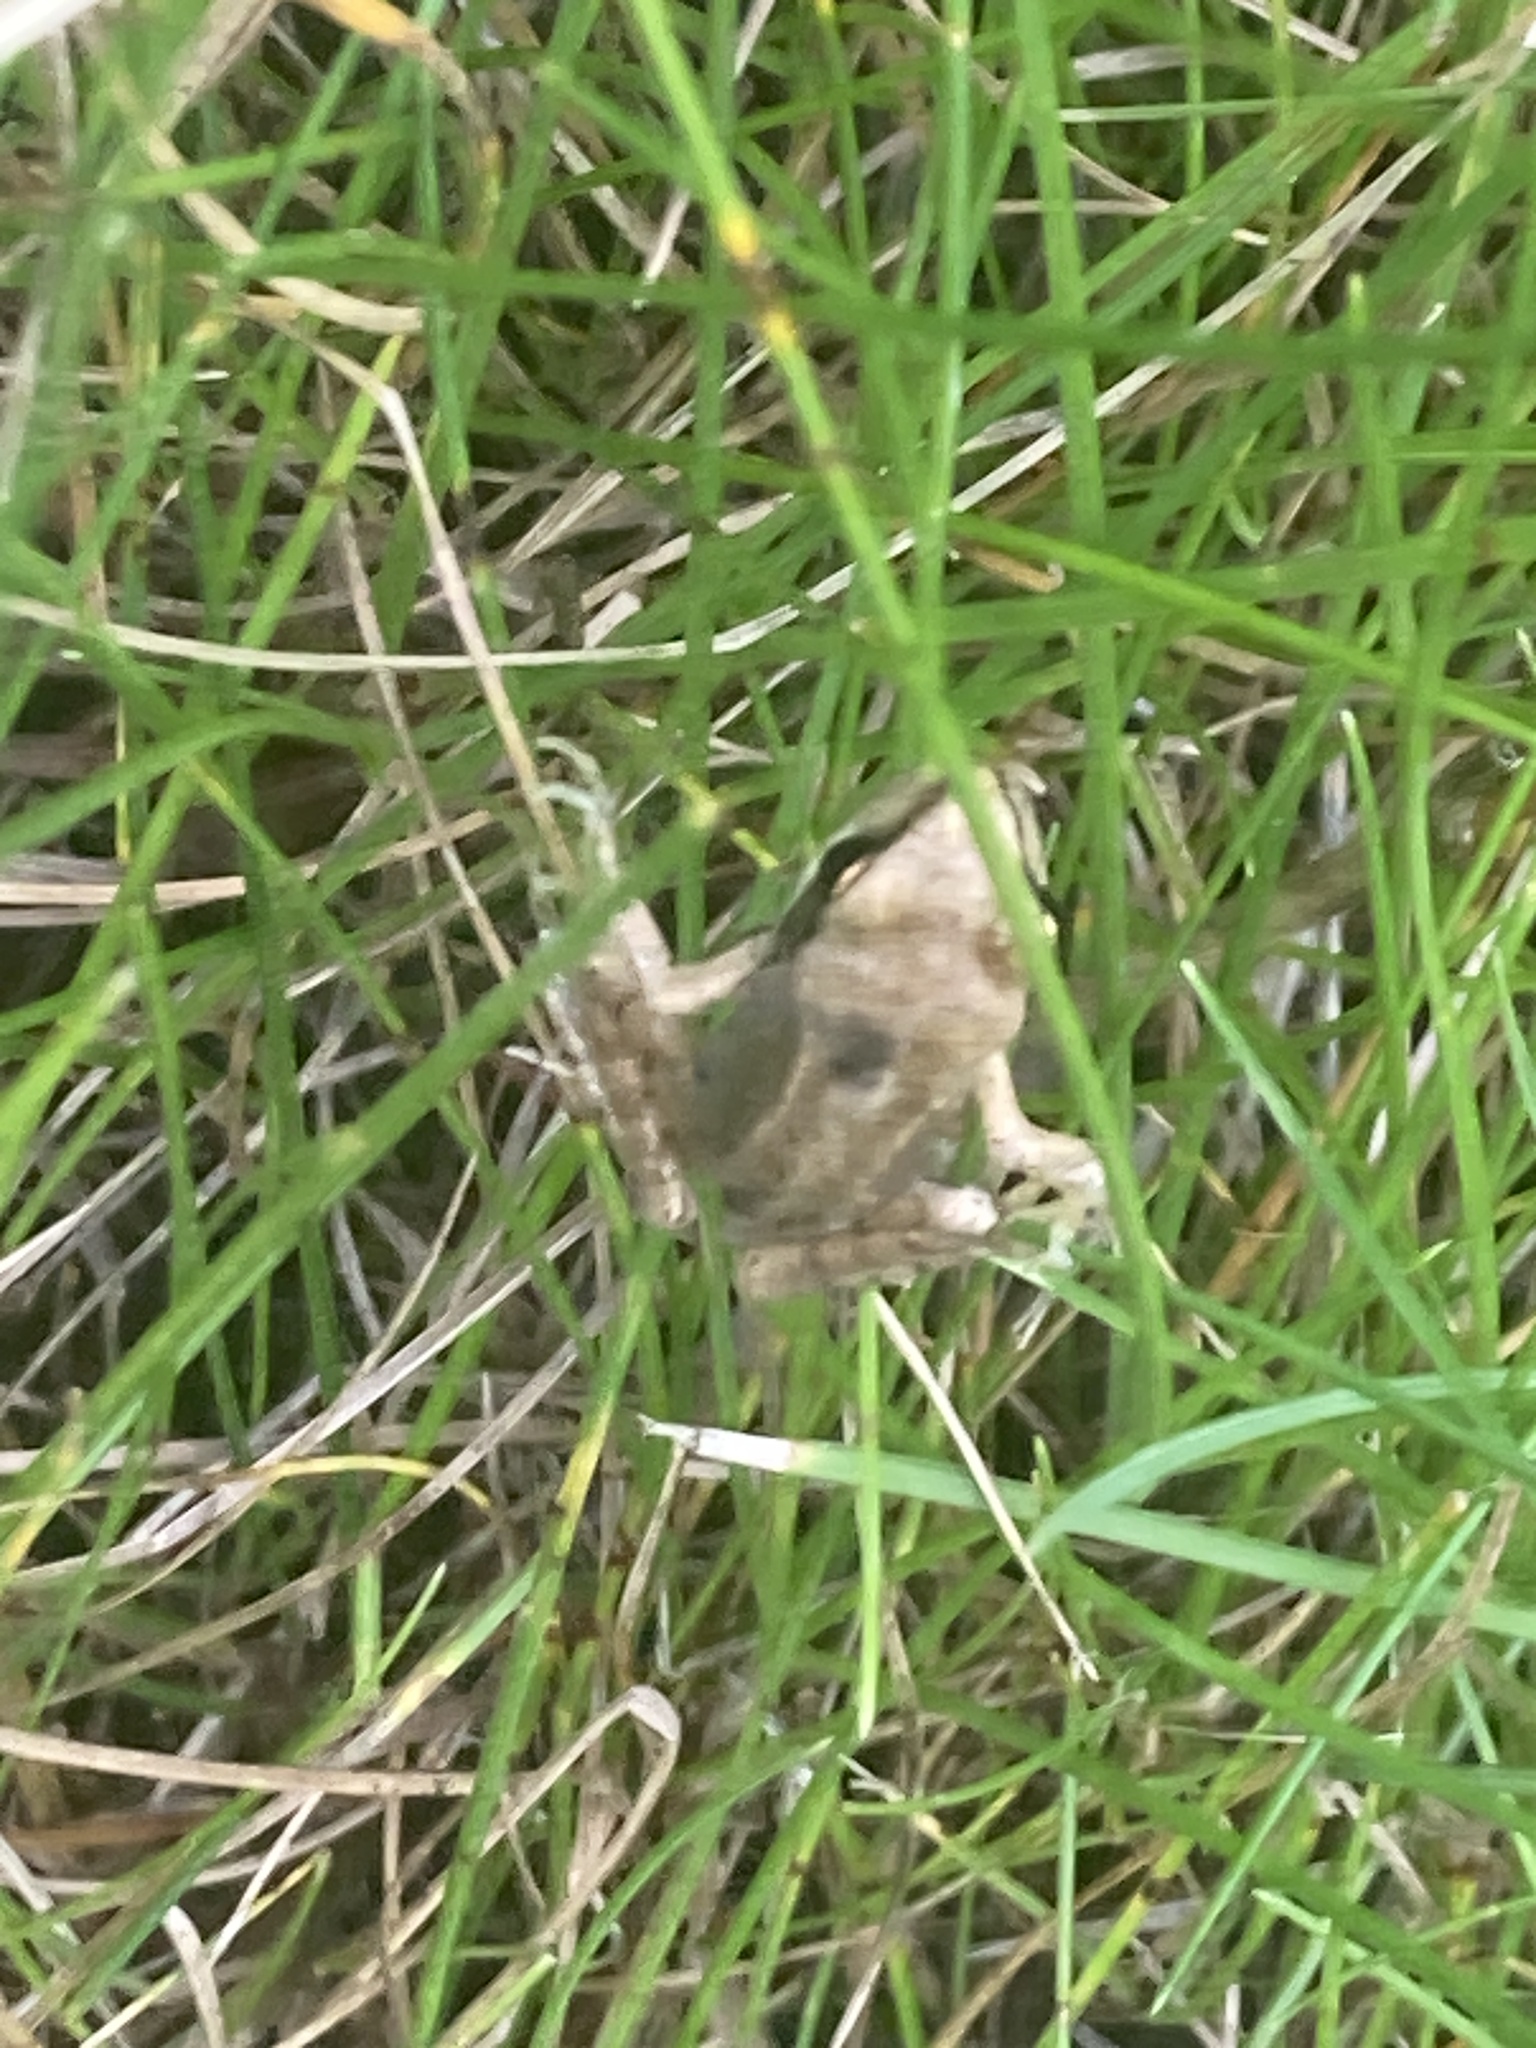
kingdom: Animalia
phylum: Chordata
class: Amphibia
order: Anura
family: Ranidae
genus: Rana
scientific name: Rana temporaria
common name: Common frog
